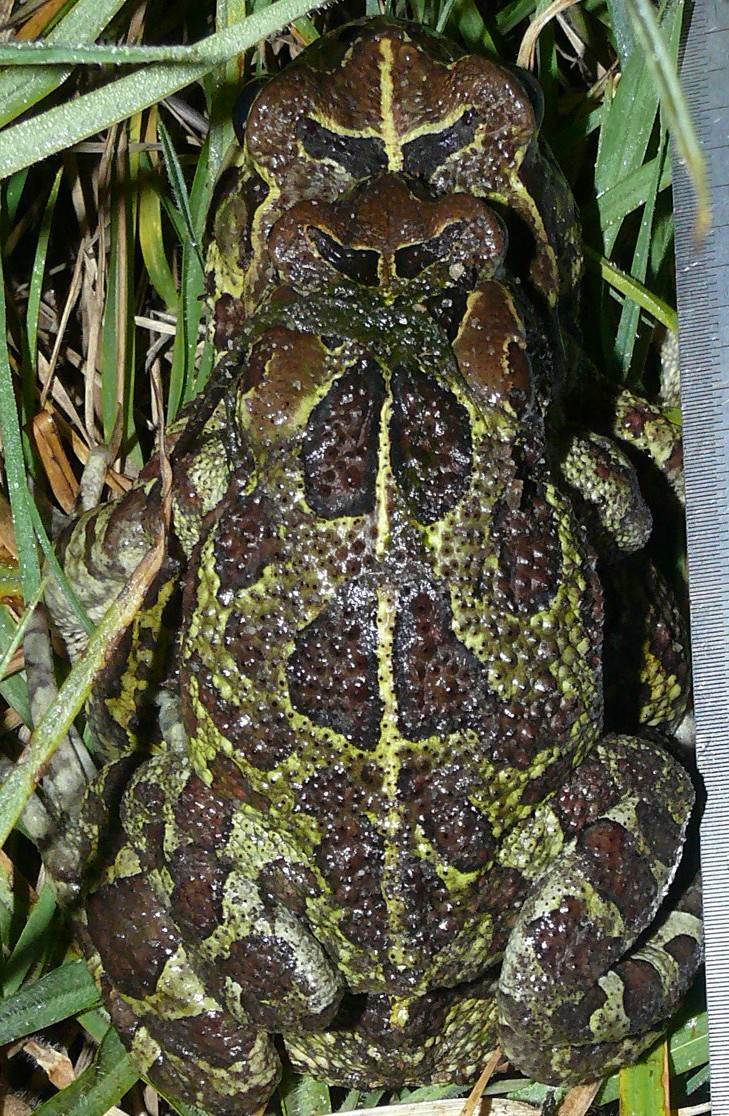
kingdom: Animalia
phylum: Chordata
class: Amphibia
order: Anura
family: Bufonidae
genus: Sclerophrys
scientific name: Sclerophrys pantherina
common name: Panther toad
